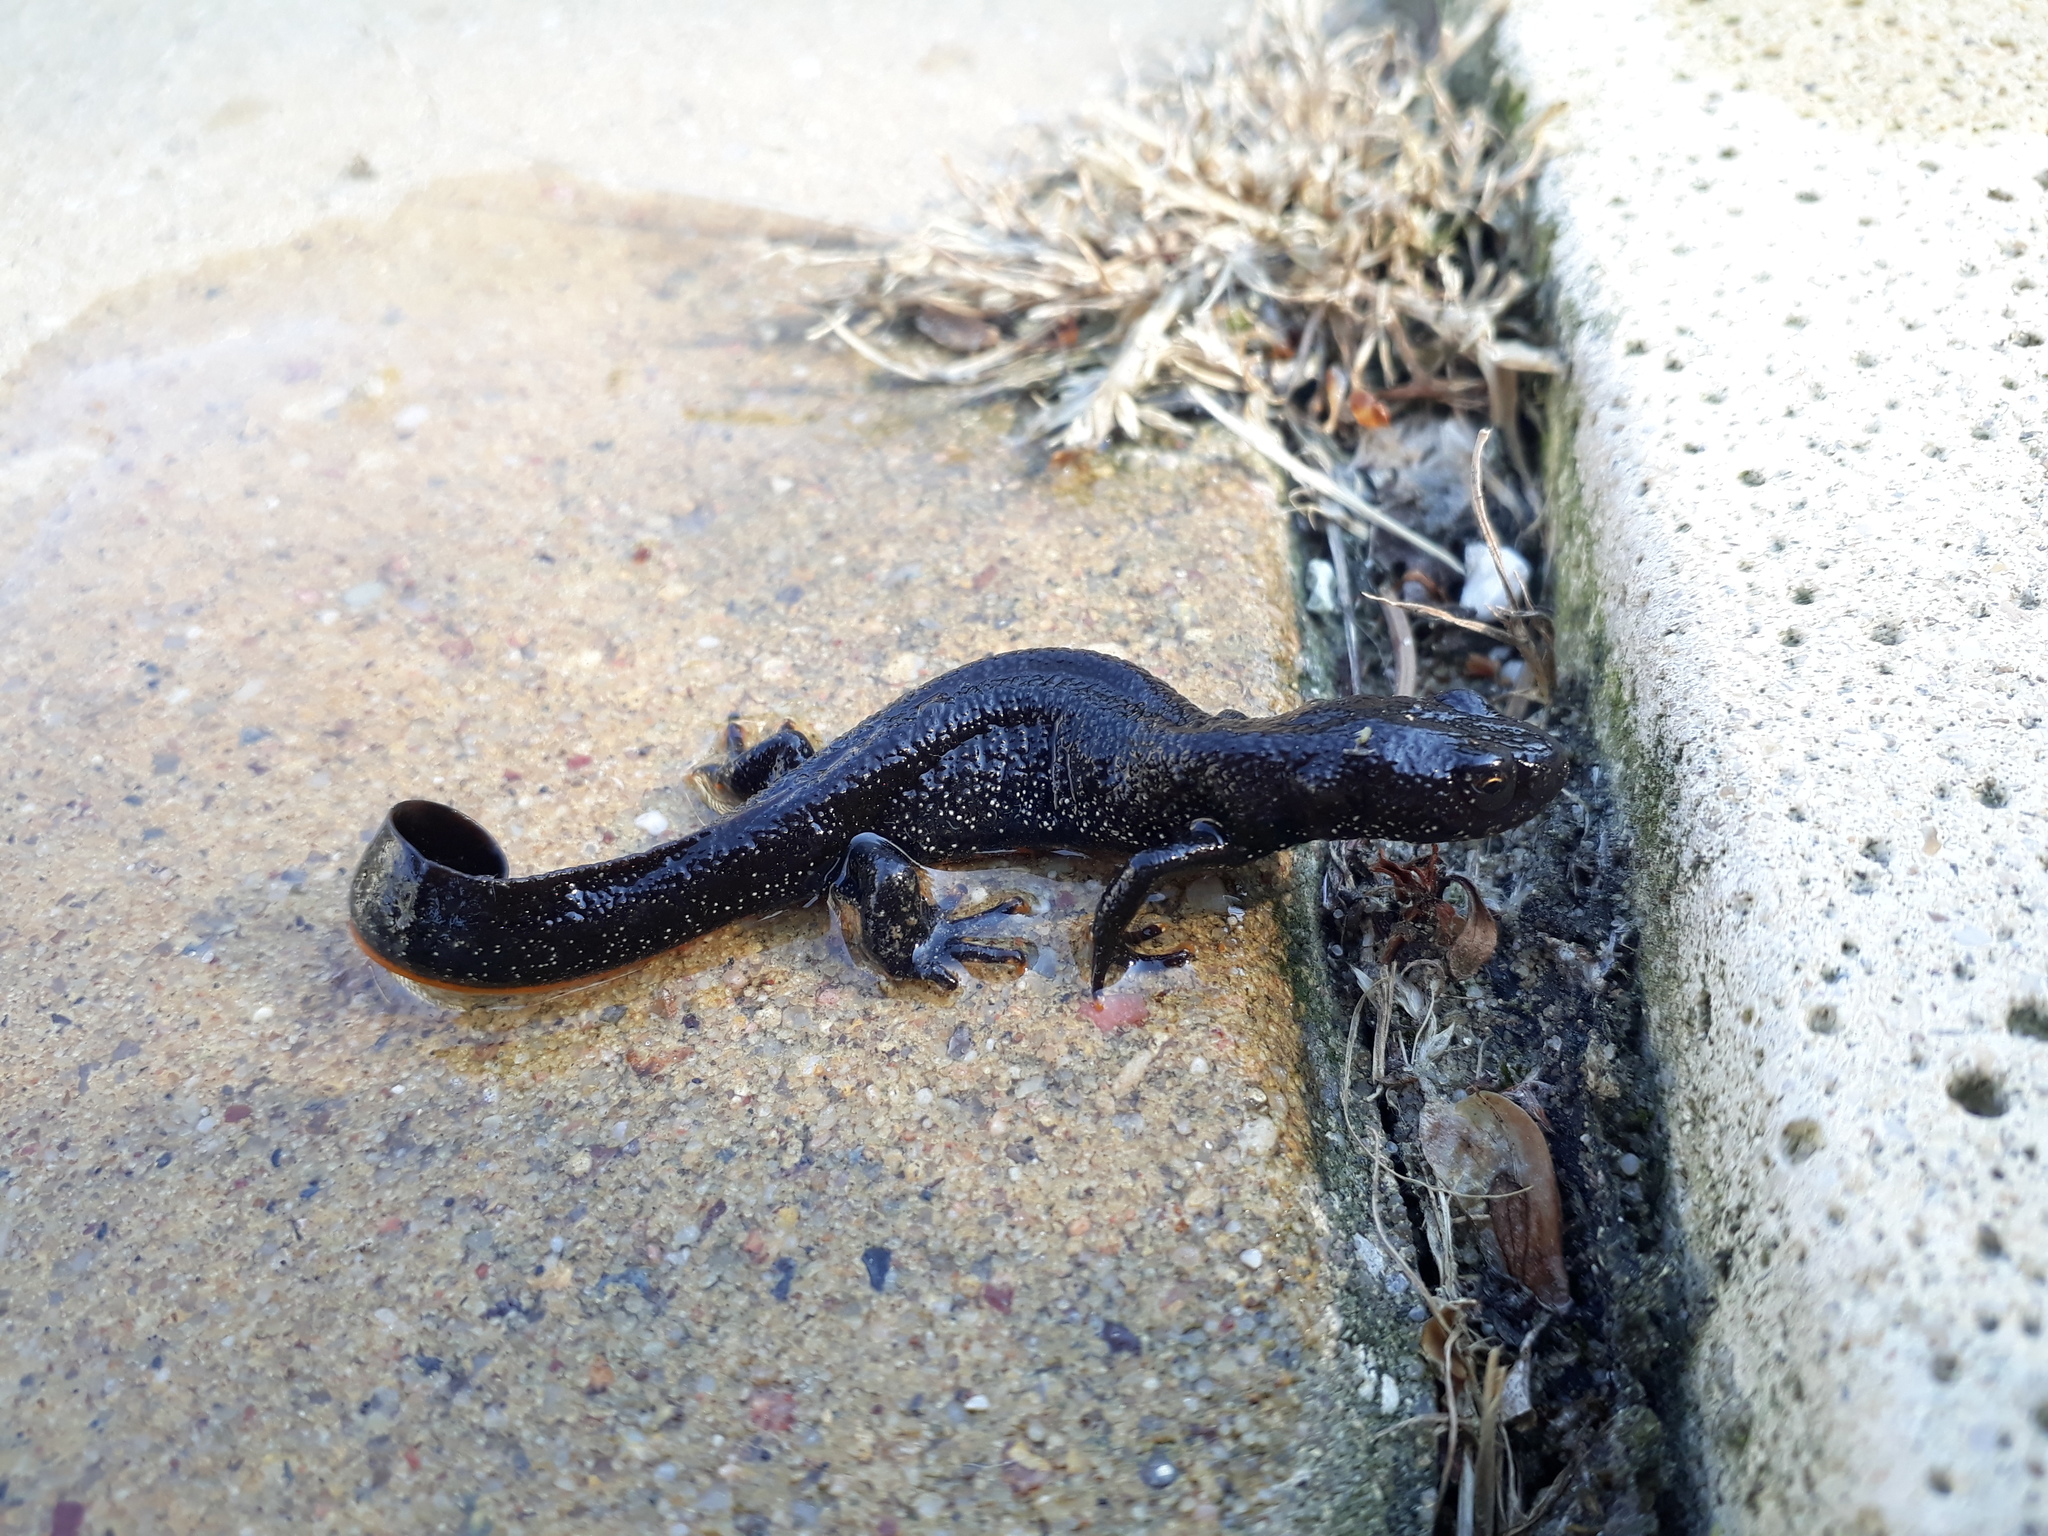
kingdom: Animalia
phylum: Chordata
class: Amphibia
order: Caudata
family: Salamandridae
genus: Triturus
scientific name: Triturus cristatus
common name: Crested newt
